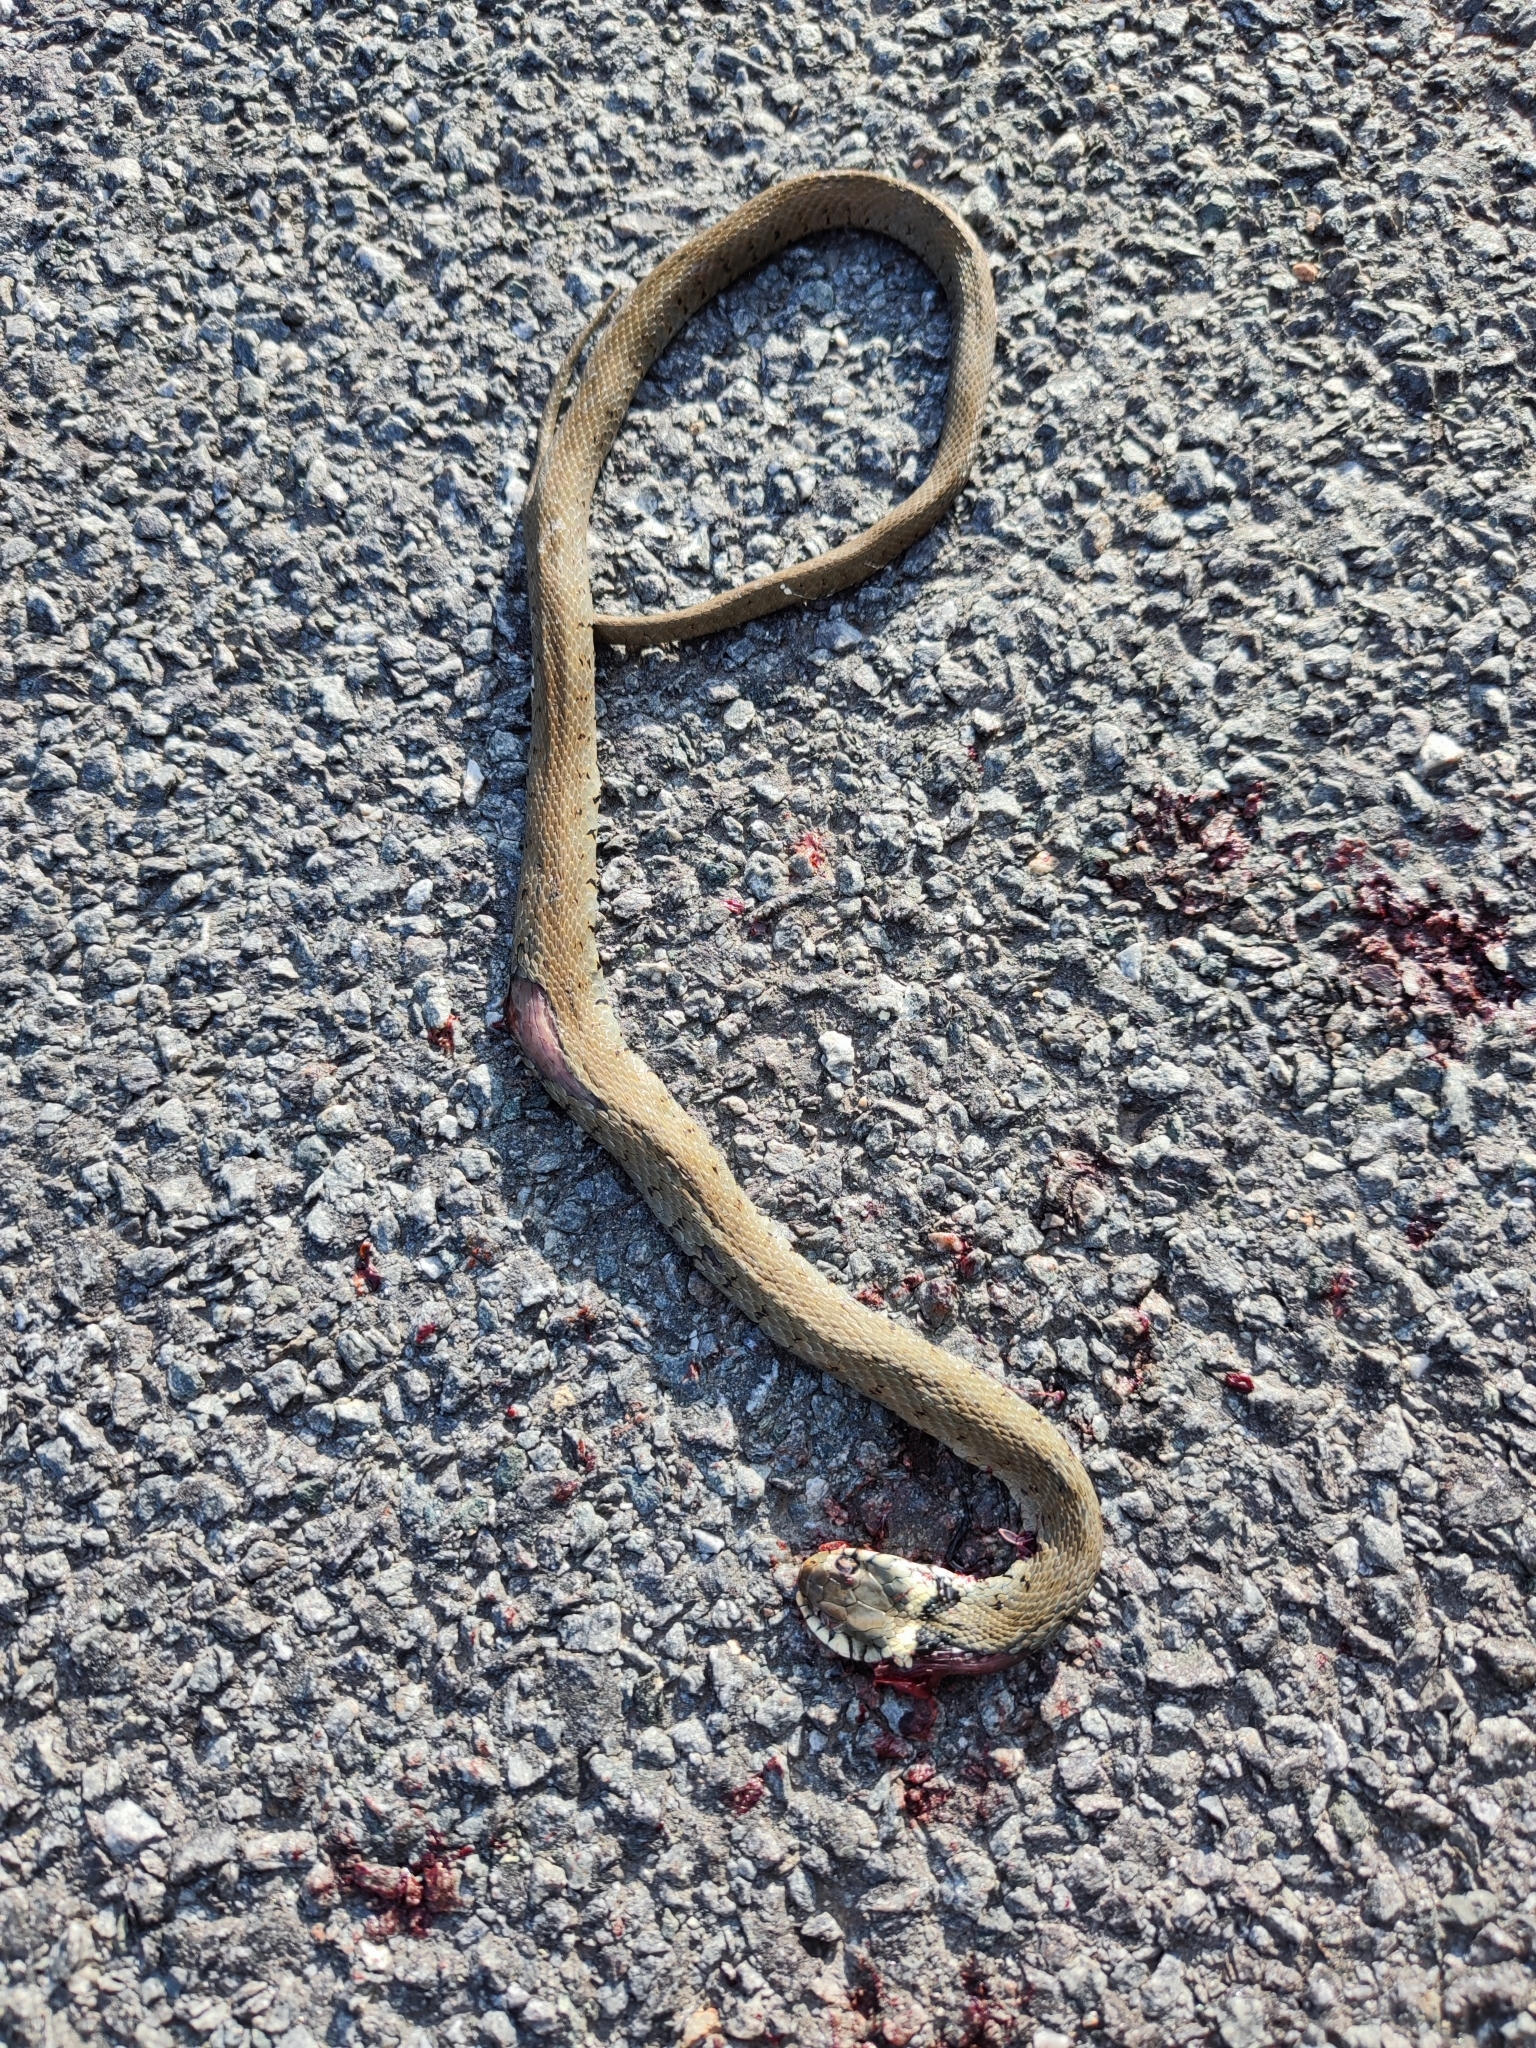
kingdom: Animalia
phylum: Chordata
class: Squamata
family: Colubridae
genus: Natrix
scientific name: Natrix helvetica
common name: Banded grass snake
